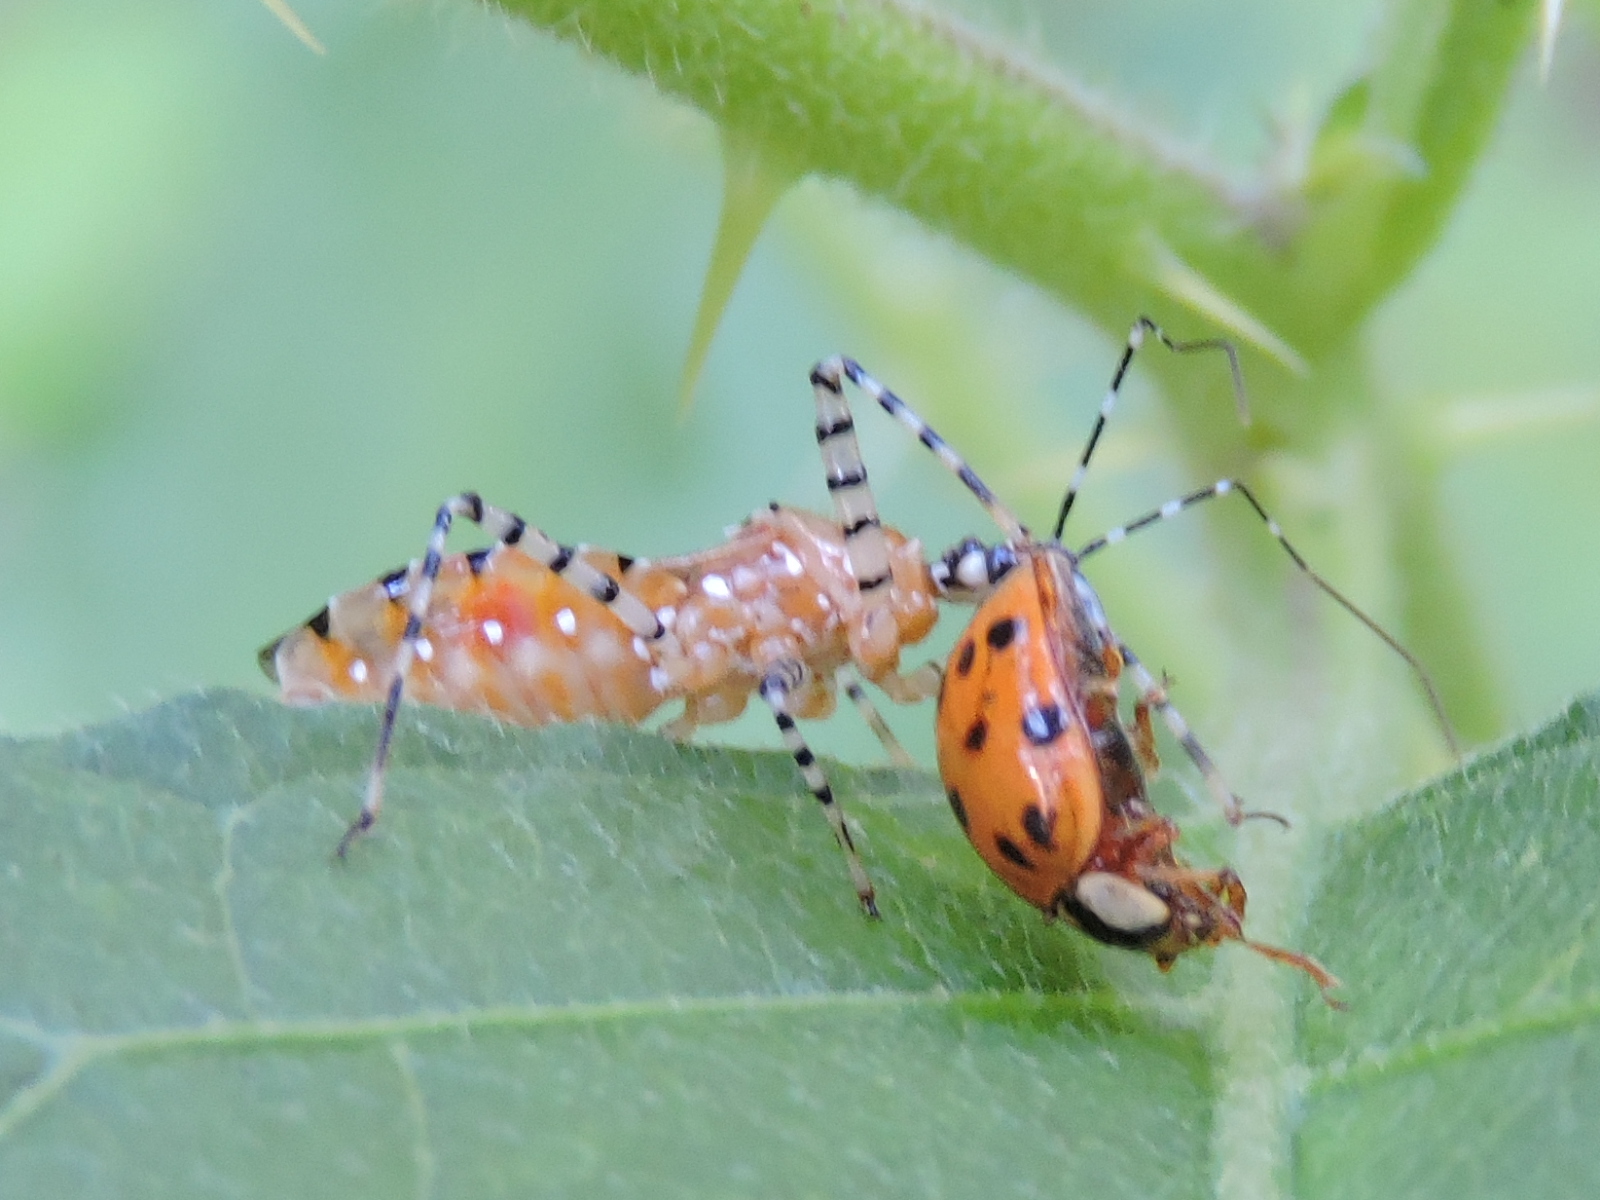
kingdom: Animalia
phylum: Arthropoda
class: Insecta
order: Hemiptera
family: Reduviidae
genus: Pselliopus
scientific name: Pselliopus cinctus
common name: Ringed assassin bug
